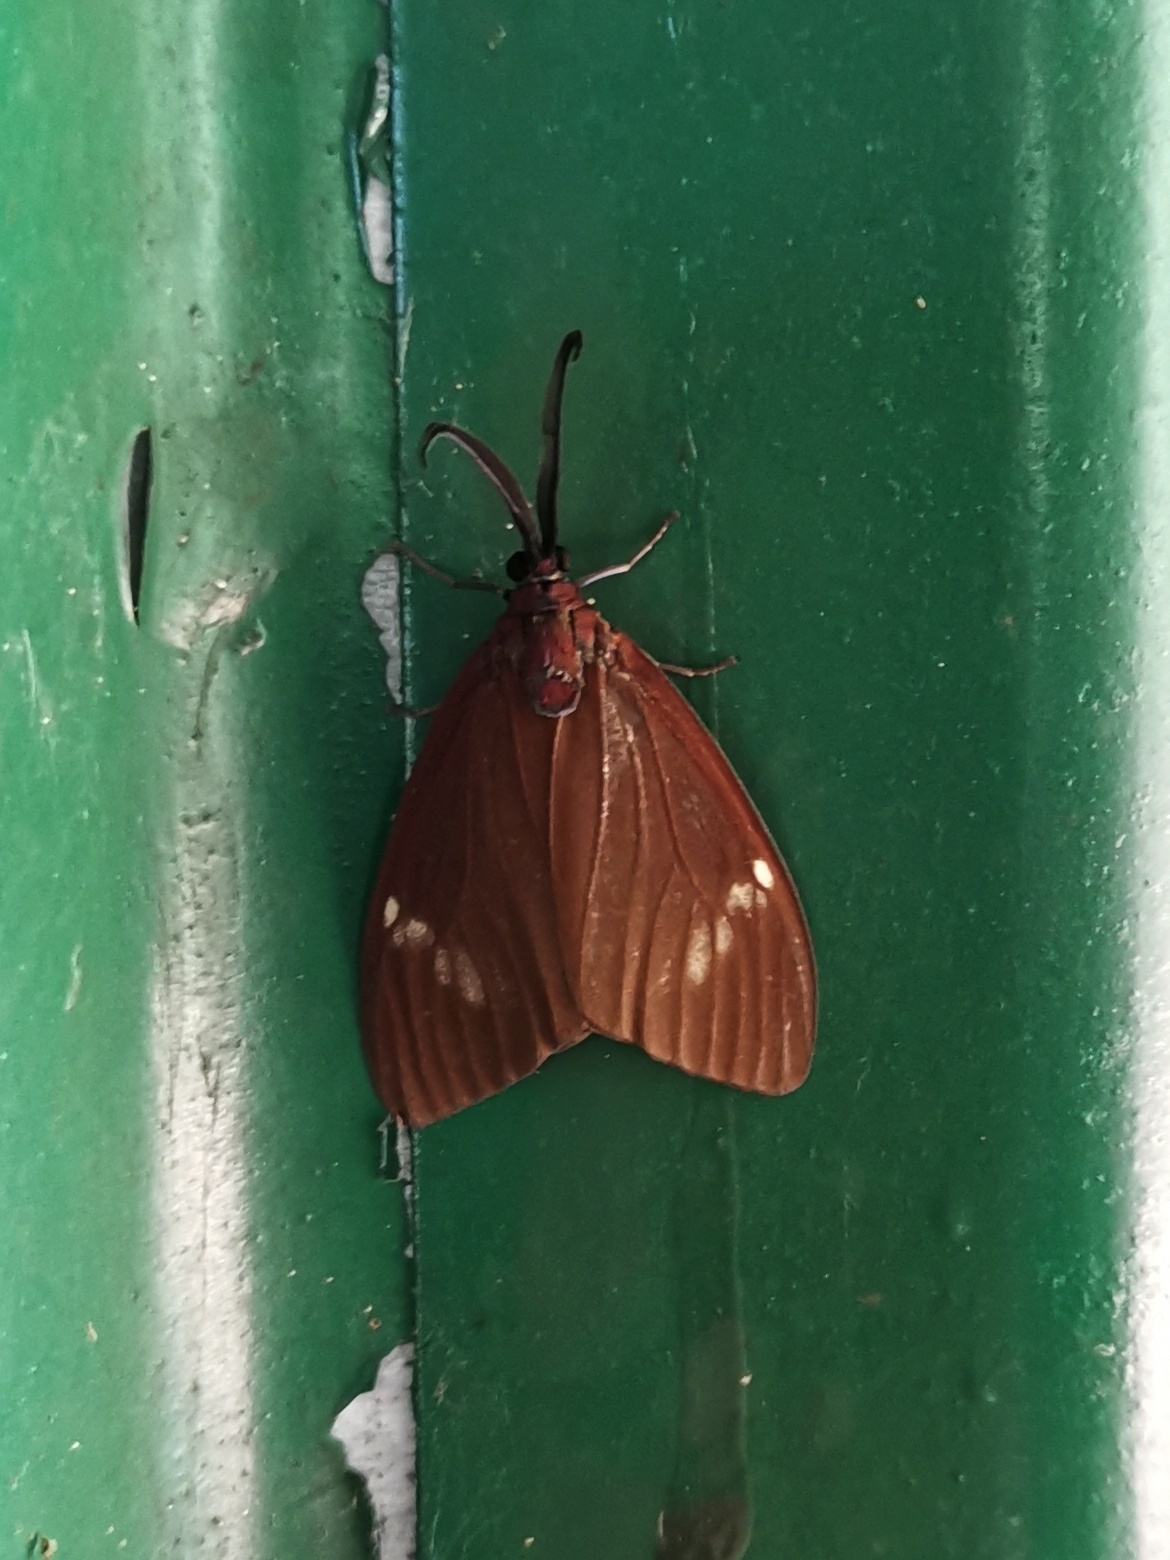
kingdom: Animalia
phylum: Arthropoda
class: Insecta
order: Lepidoptera
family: Zygaenidae
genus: Cyclosia
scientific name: Cyclosia
